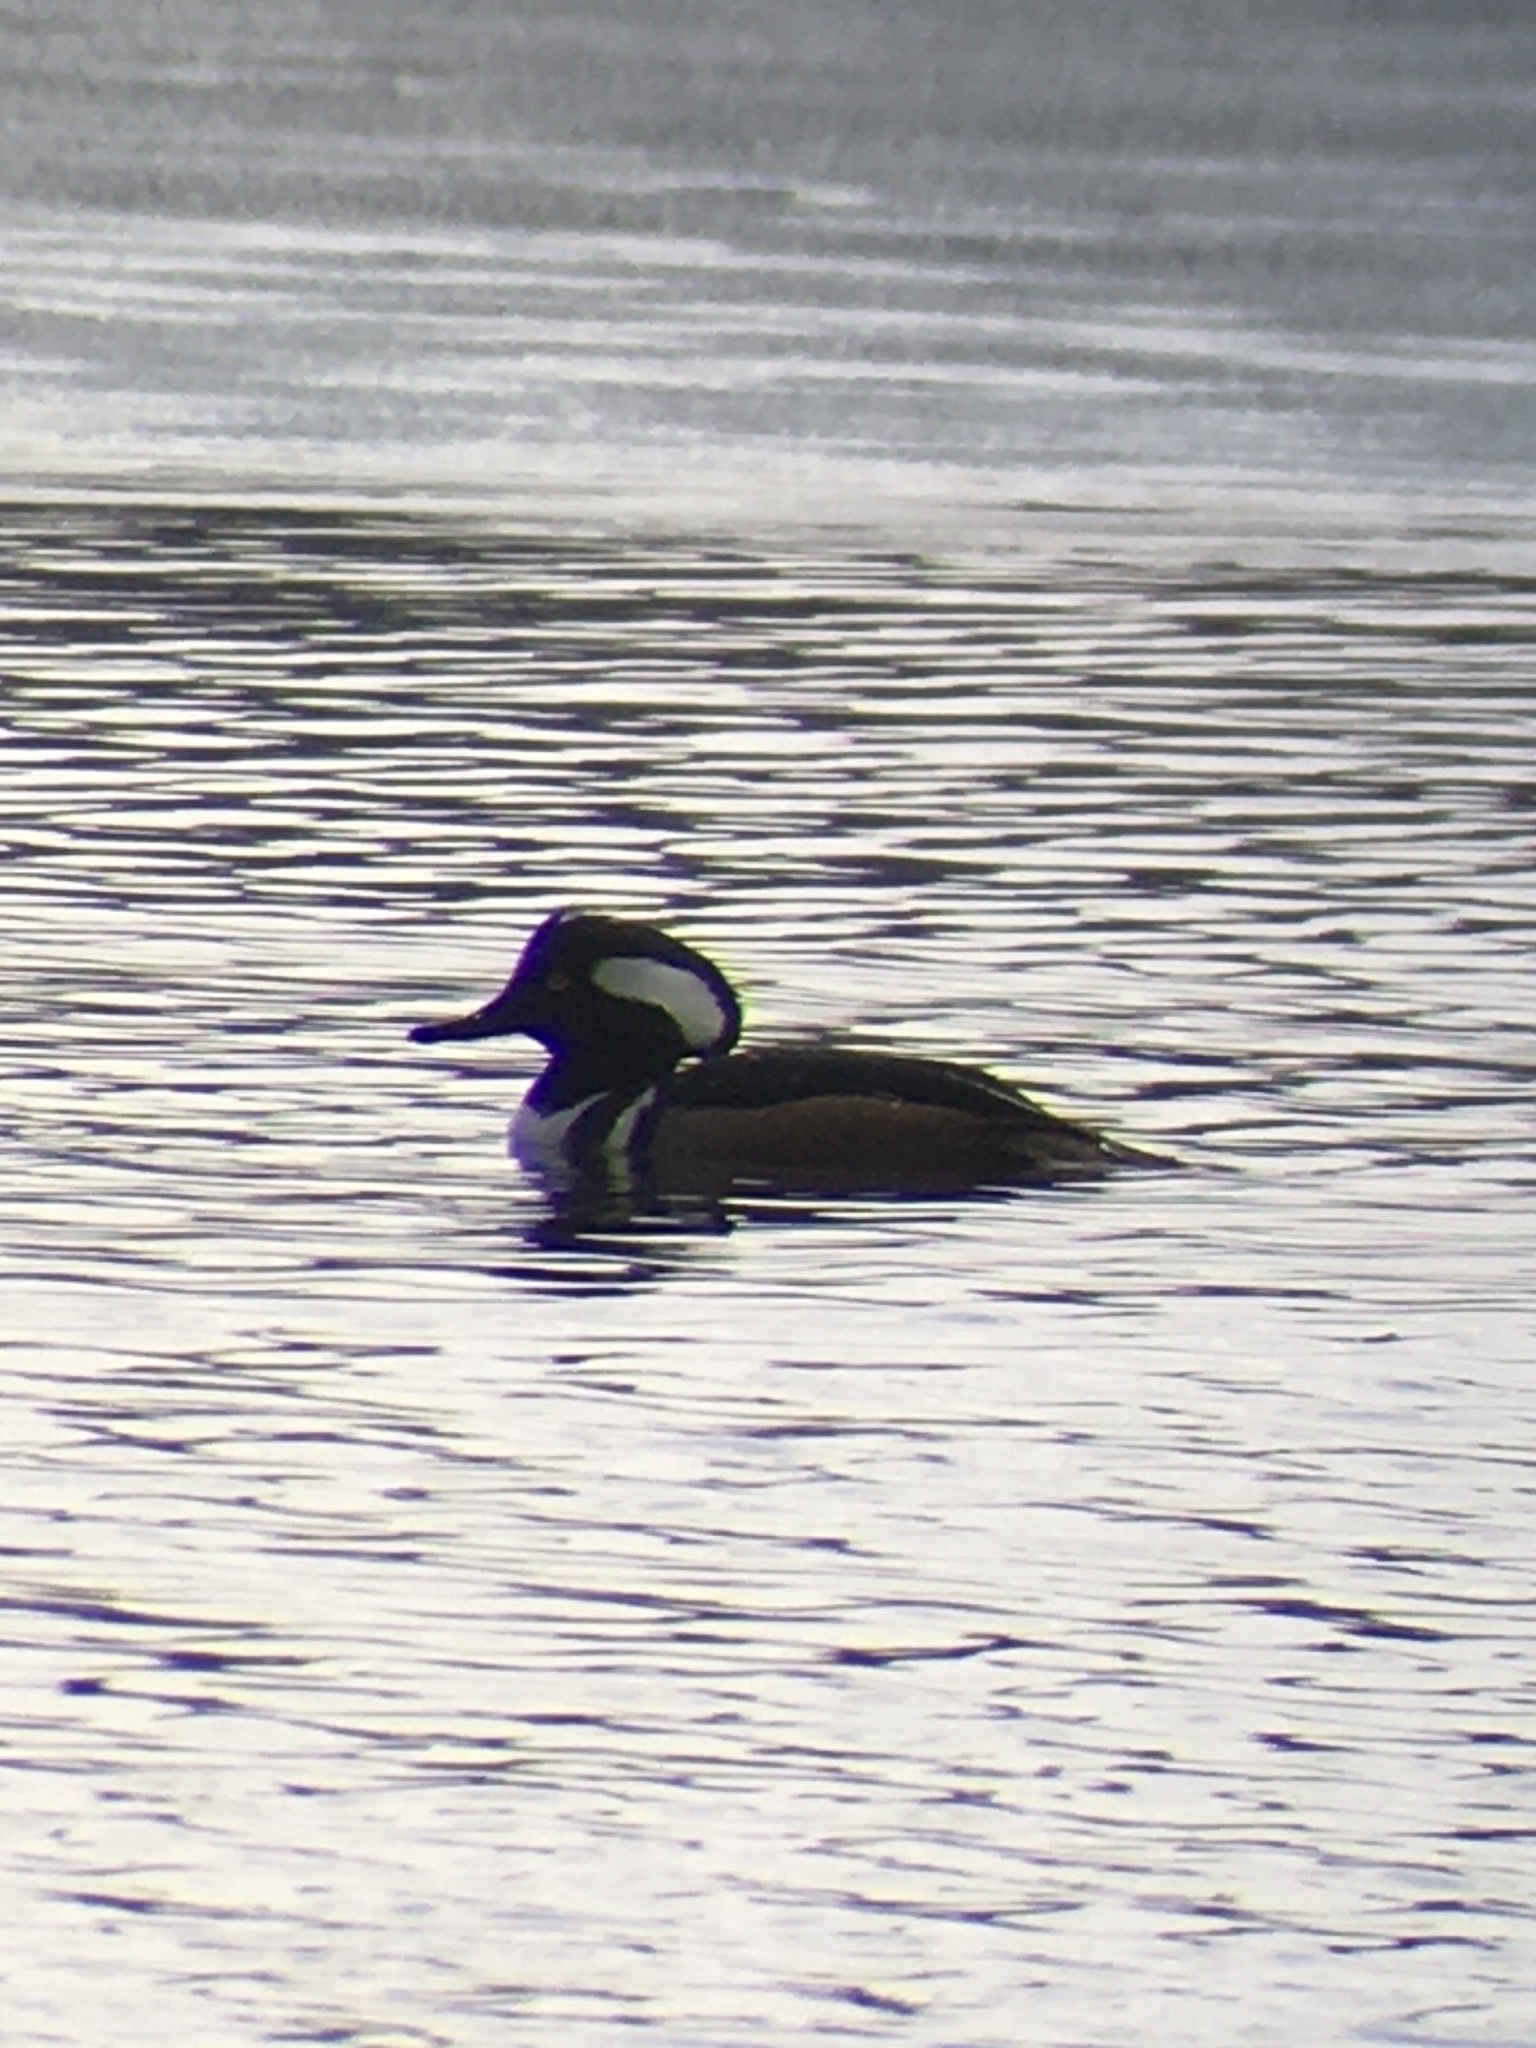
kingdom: Animalia
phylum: Chordata
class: Aves
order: Anseriformes
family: Anatidae
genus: Lophodytes
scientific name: Lophodytes cucullatus
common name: Hooded merganser
